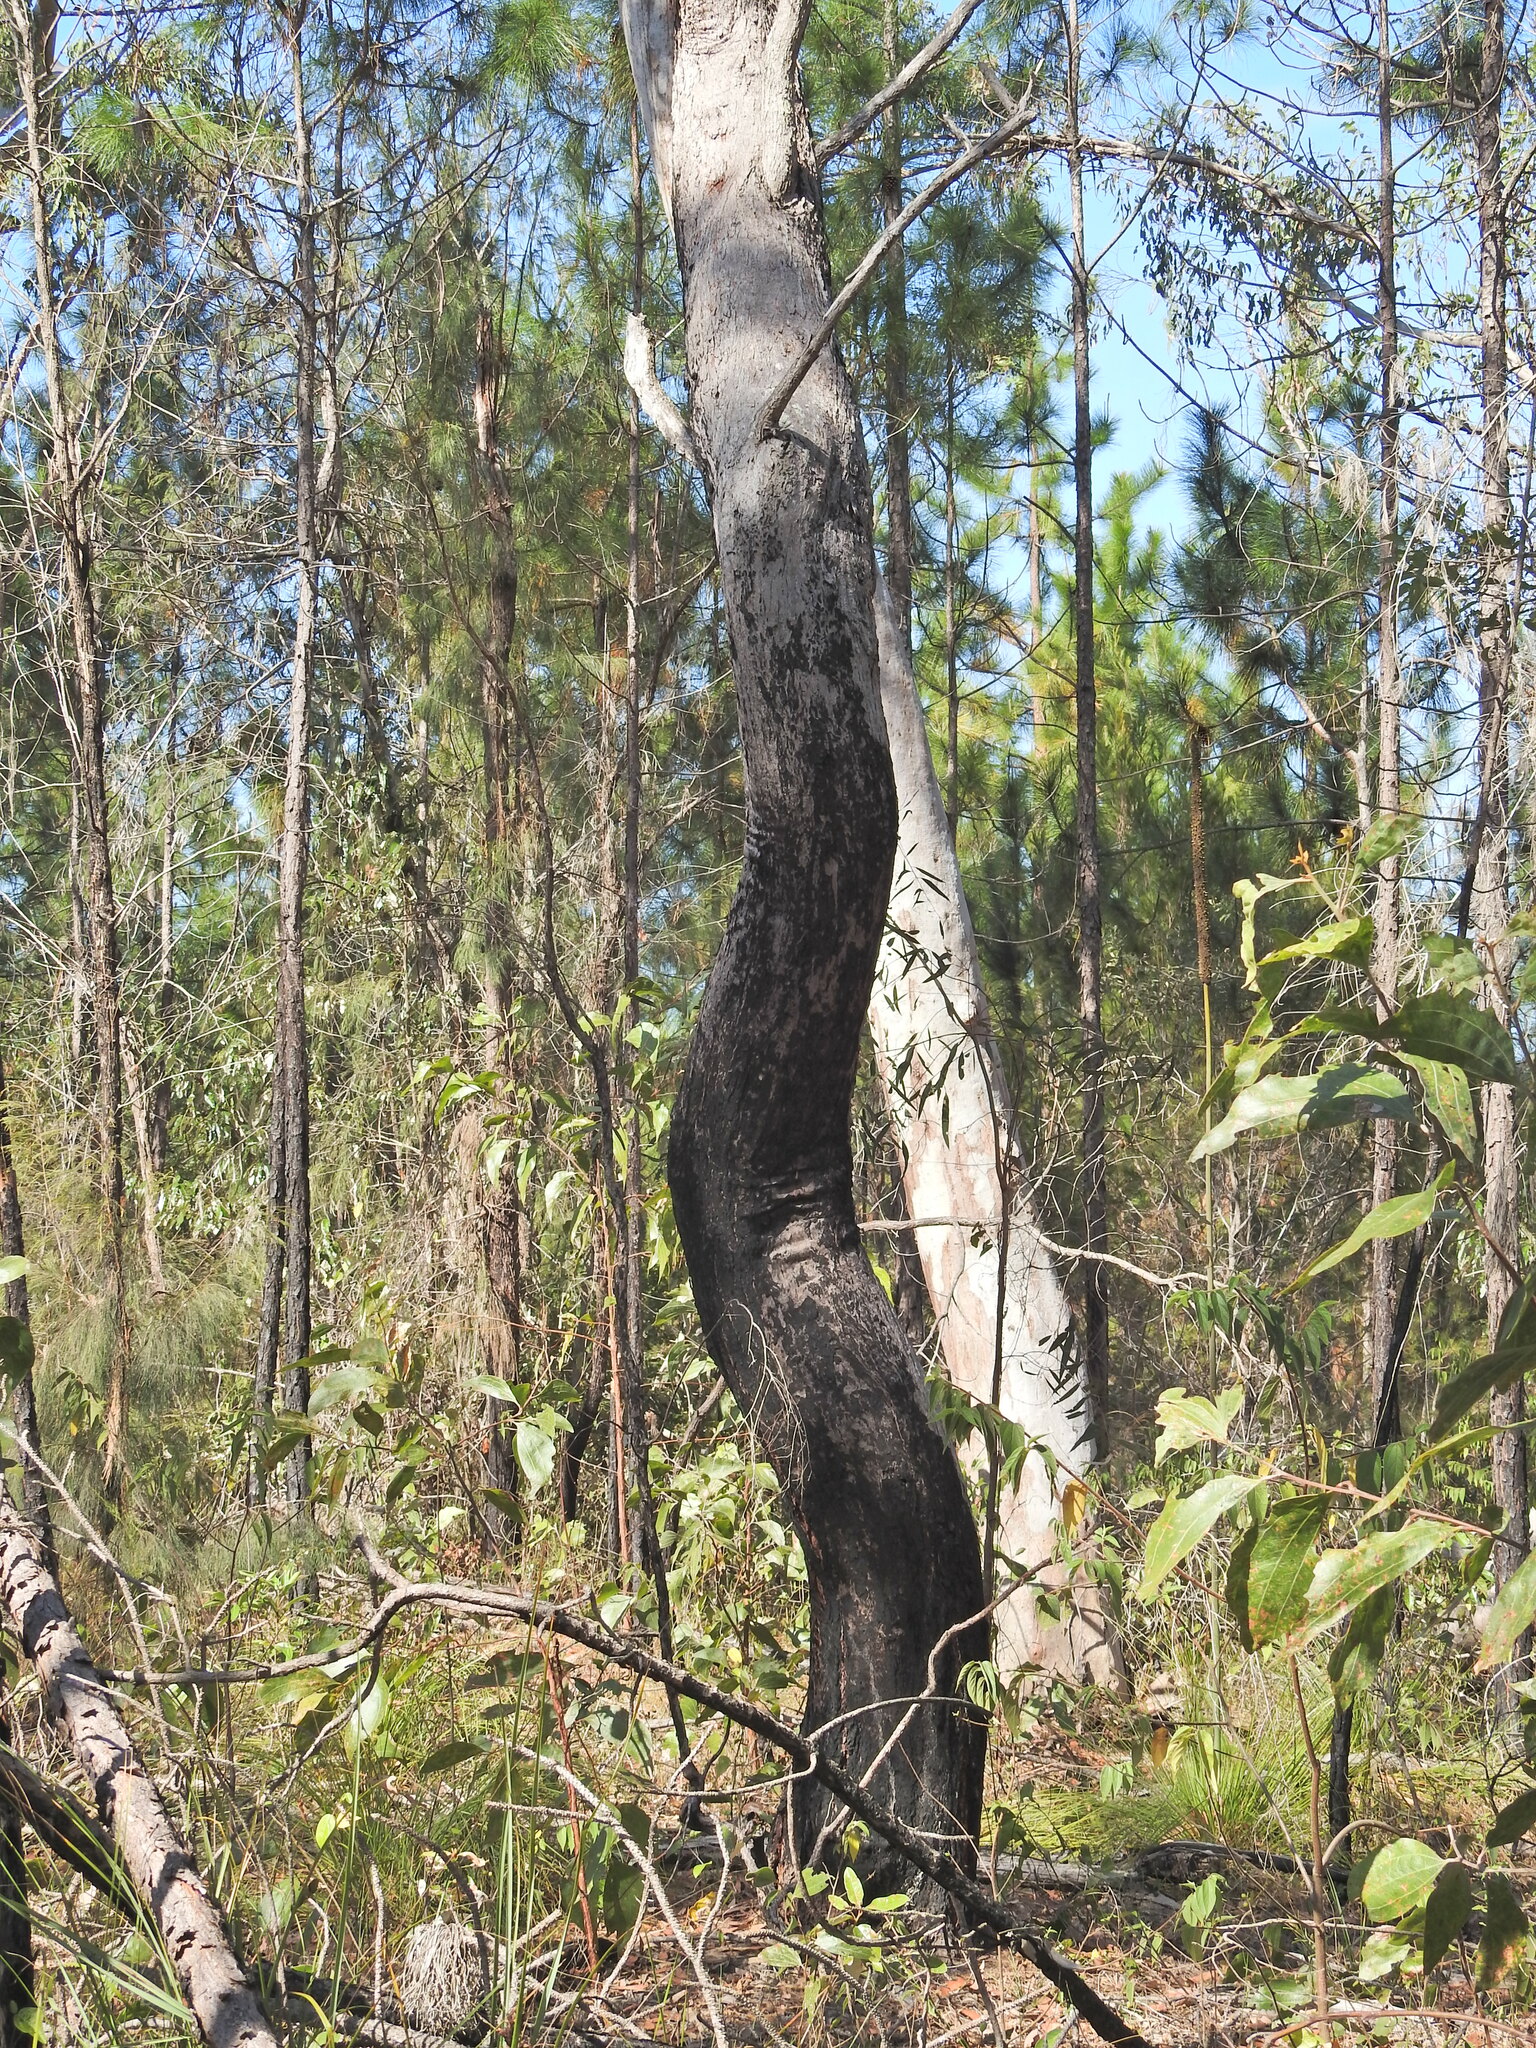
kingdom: Plantae
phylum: Tracheophyta
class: Magnoliopsida
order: Myrtales
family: Myrtaceae
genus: Eucalyptus
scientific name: Eucalyptus exserta
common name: Peppermint-bendo
